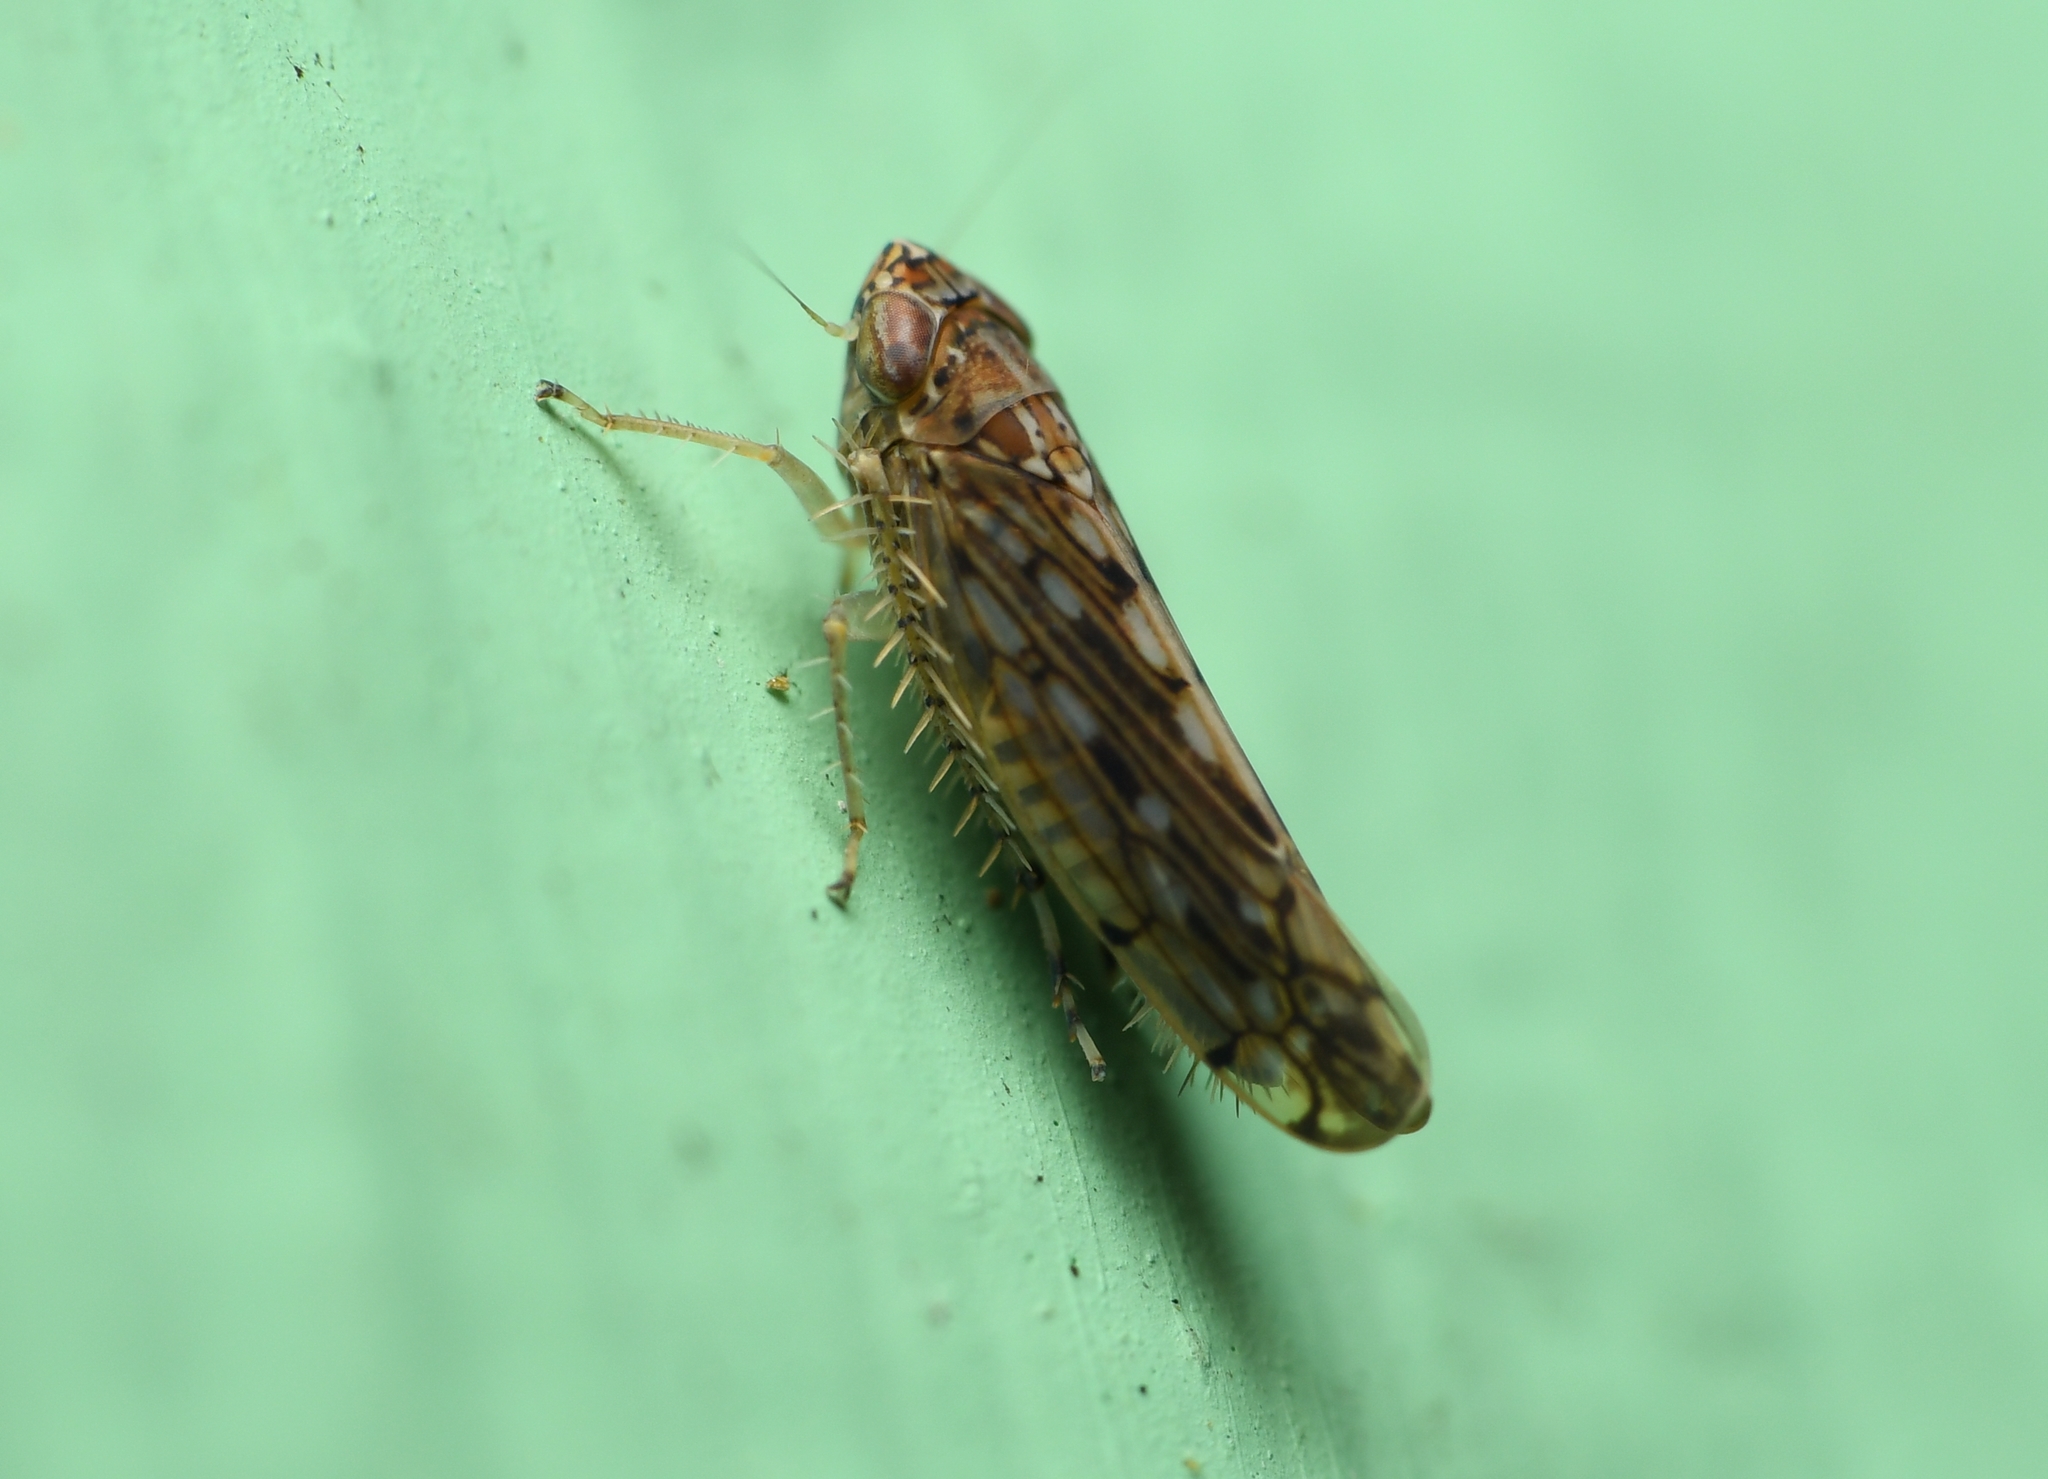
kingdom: Animalia
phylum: Arthropoda
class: Insecta
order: Hemiptera
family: Cicadellidae
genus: Osbornellus
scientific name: Osbornellus clarus
